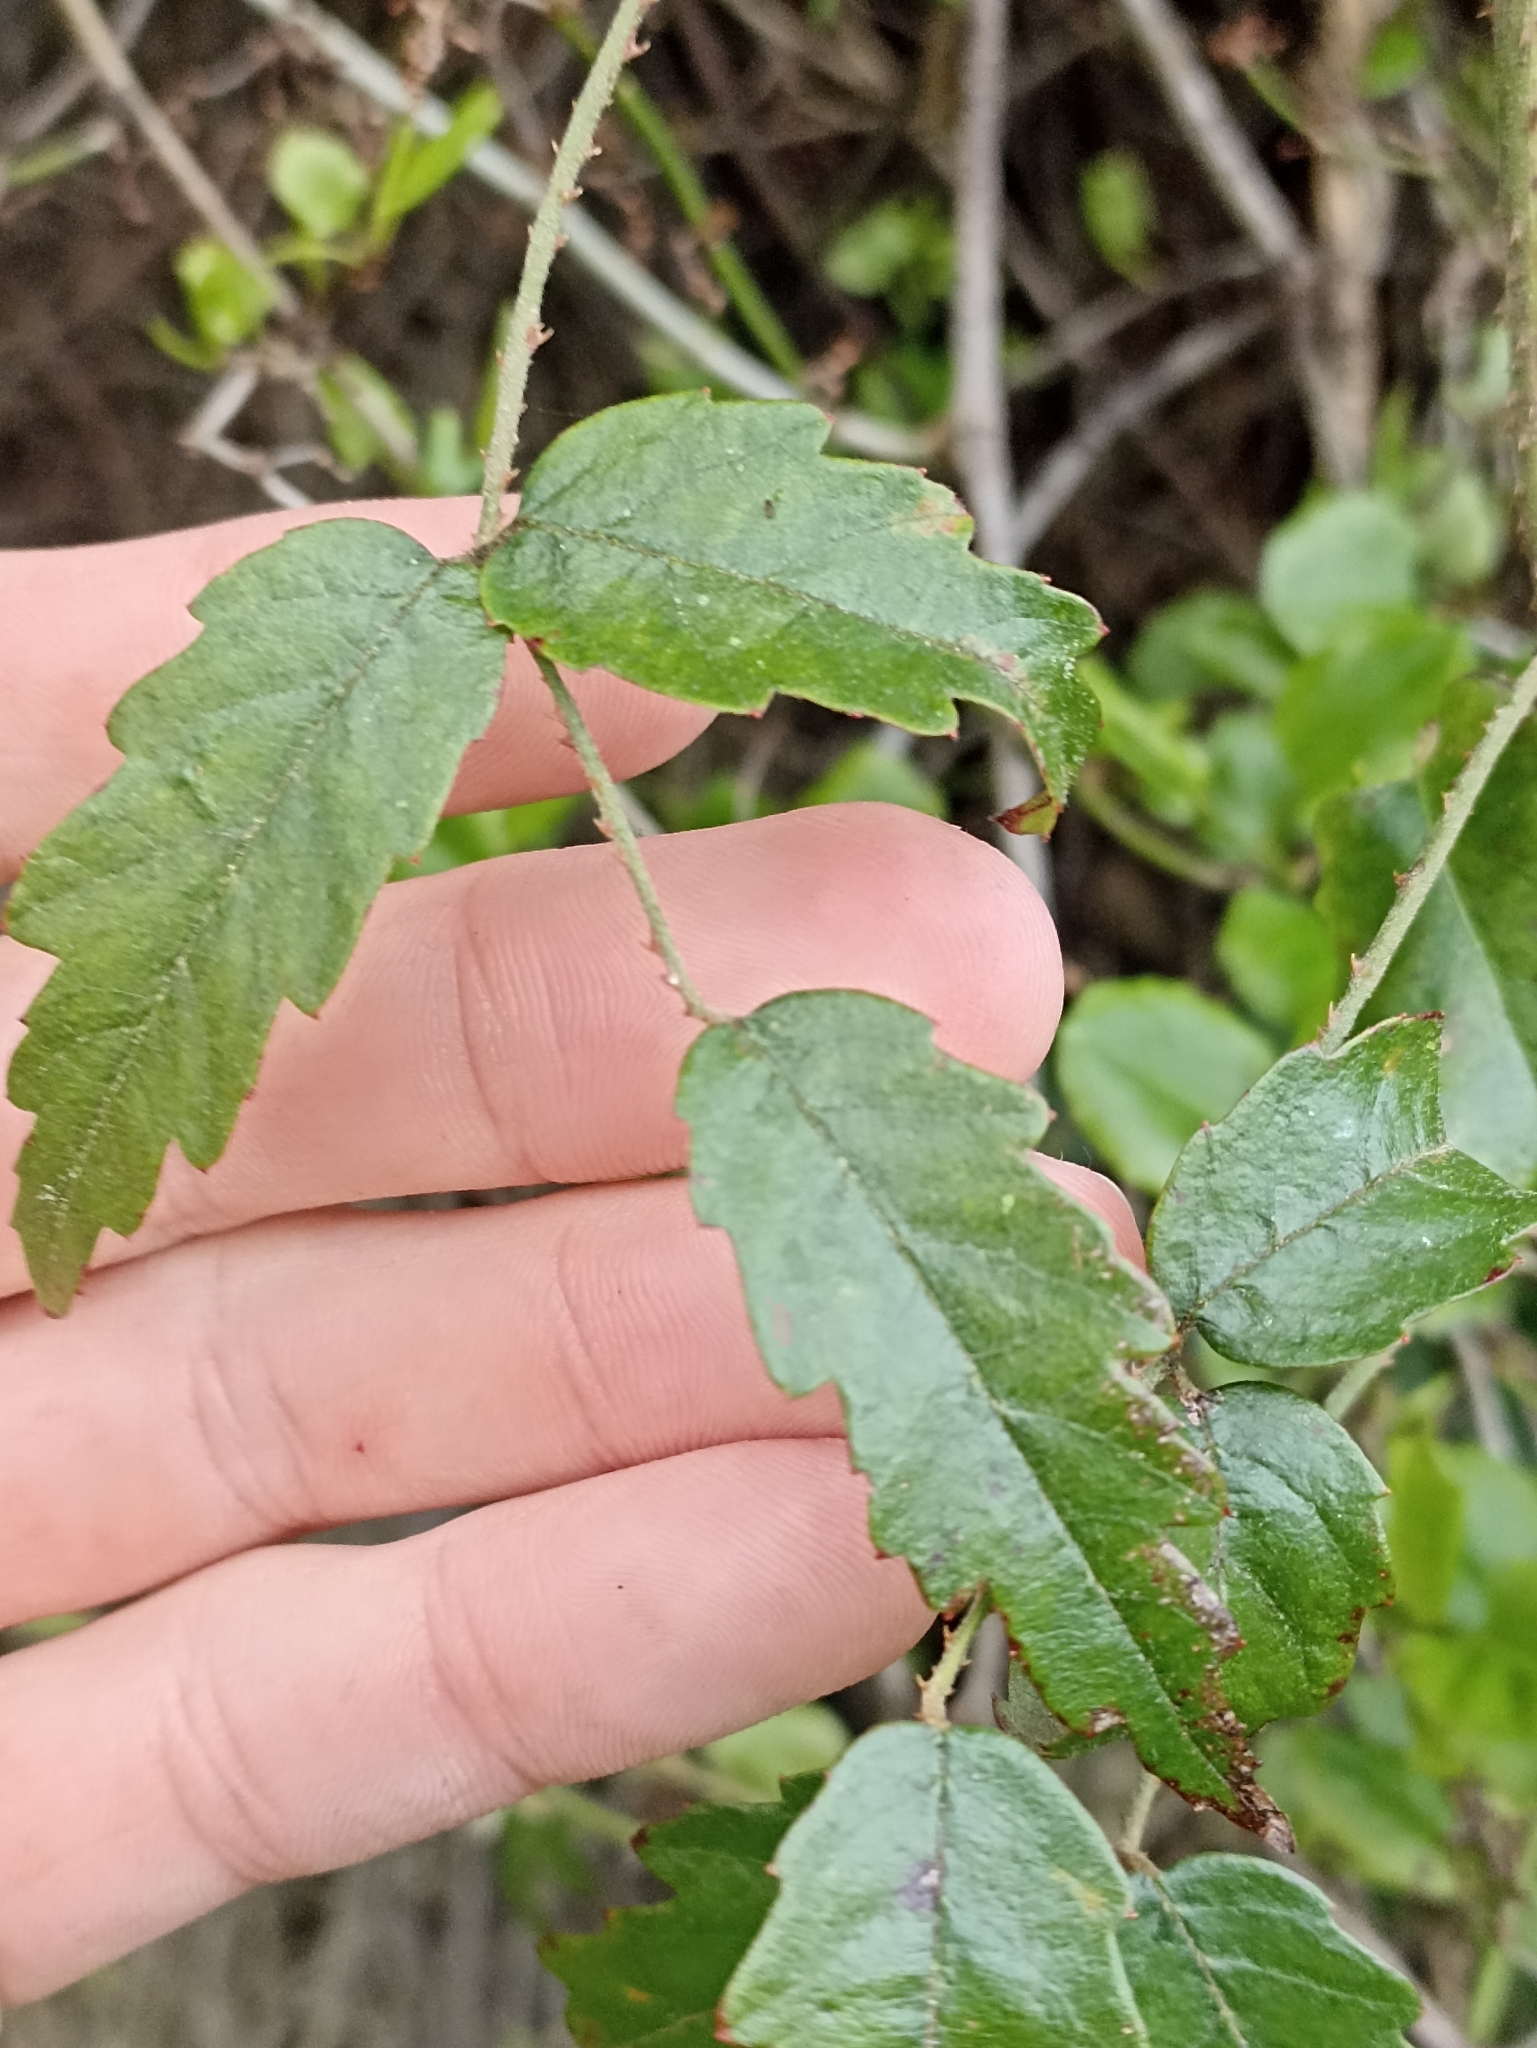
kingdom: Plantae
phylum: Tracheophyta
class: Magnoliopsida
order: Rosales
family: Rosaceae
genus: Rubus
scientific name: Rubus schmidelioides
